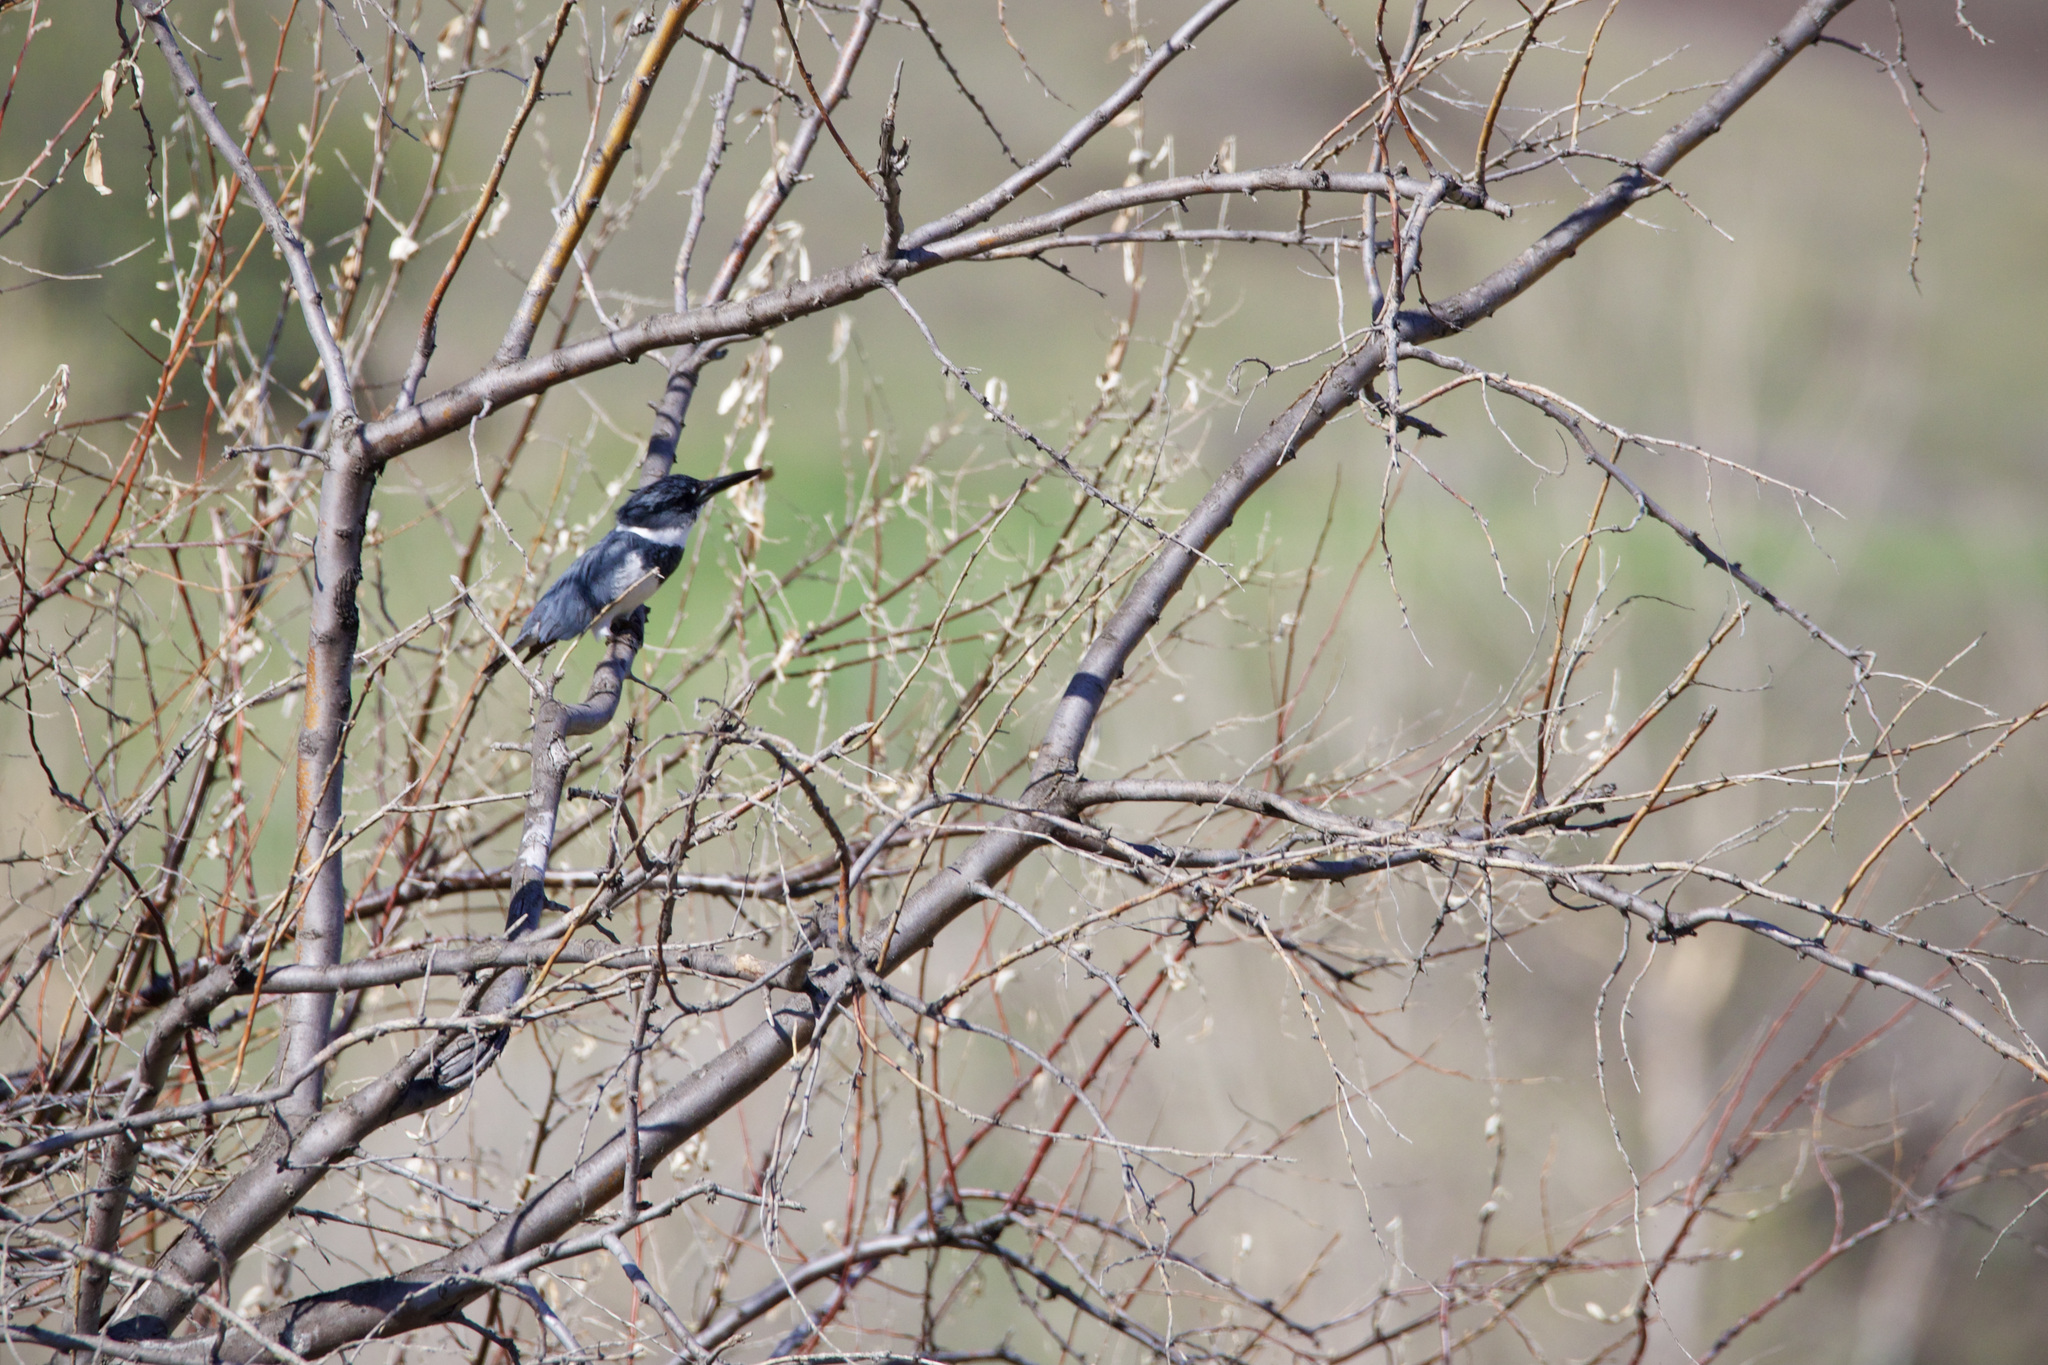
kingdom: Animalia
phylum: Chordata
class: Aves
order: Coraciiformes
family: Alcedinidae
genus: Megaceryle
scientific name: Megaceryle alcyon
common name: Belted kingfisher
